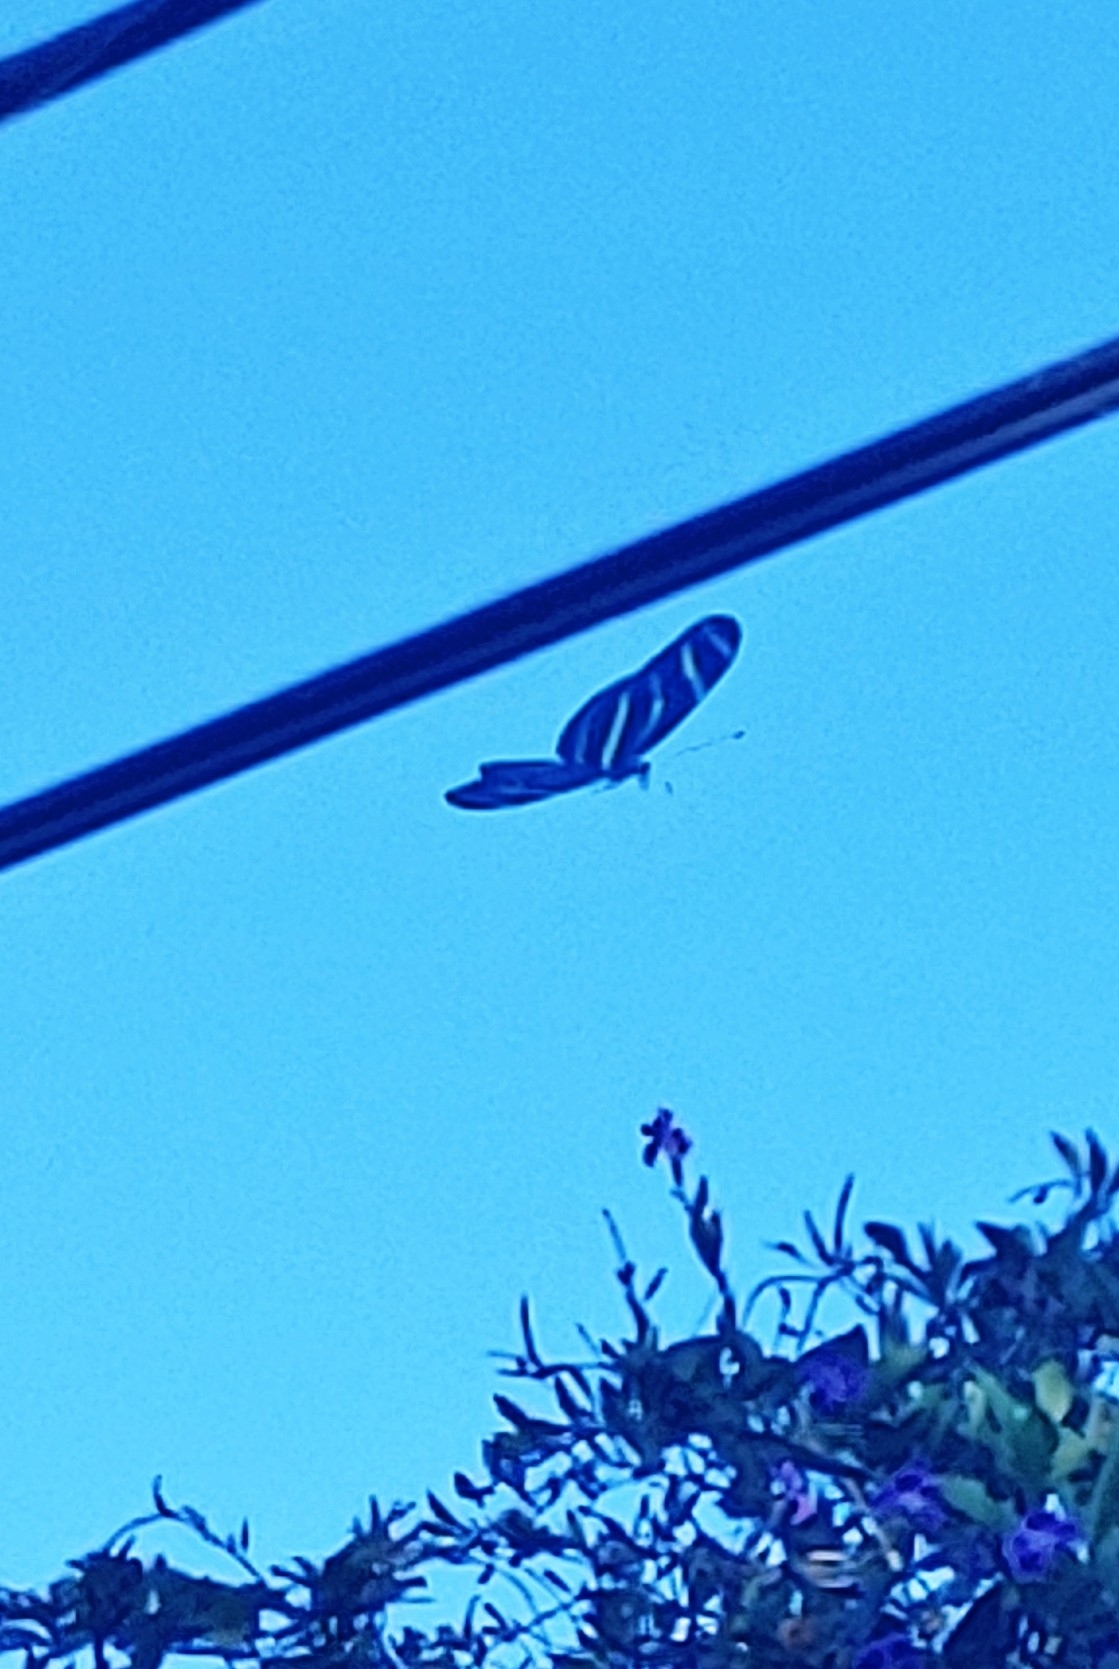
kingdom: Animalia
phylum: Arthropoda
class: Insecta
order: Lepidoptera
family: Nymphalidae
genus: Heliconius
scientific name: Heliconius charithonia
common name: Zebra long wing
